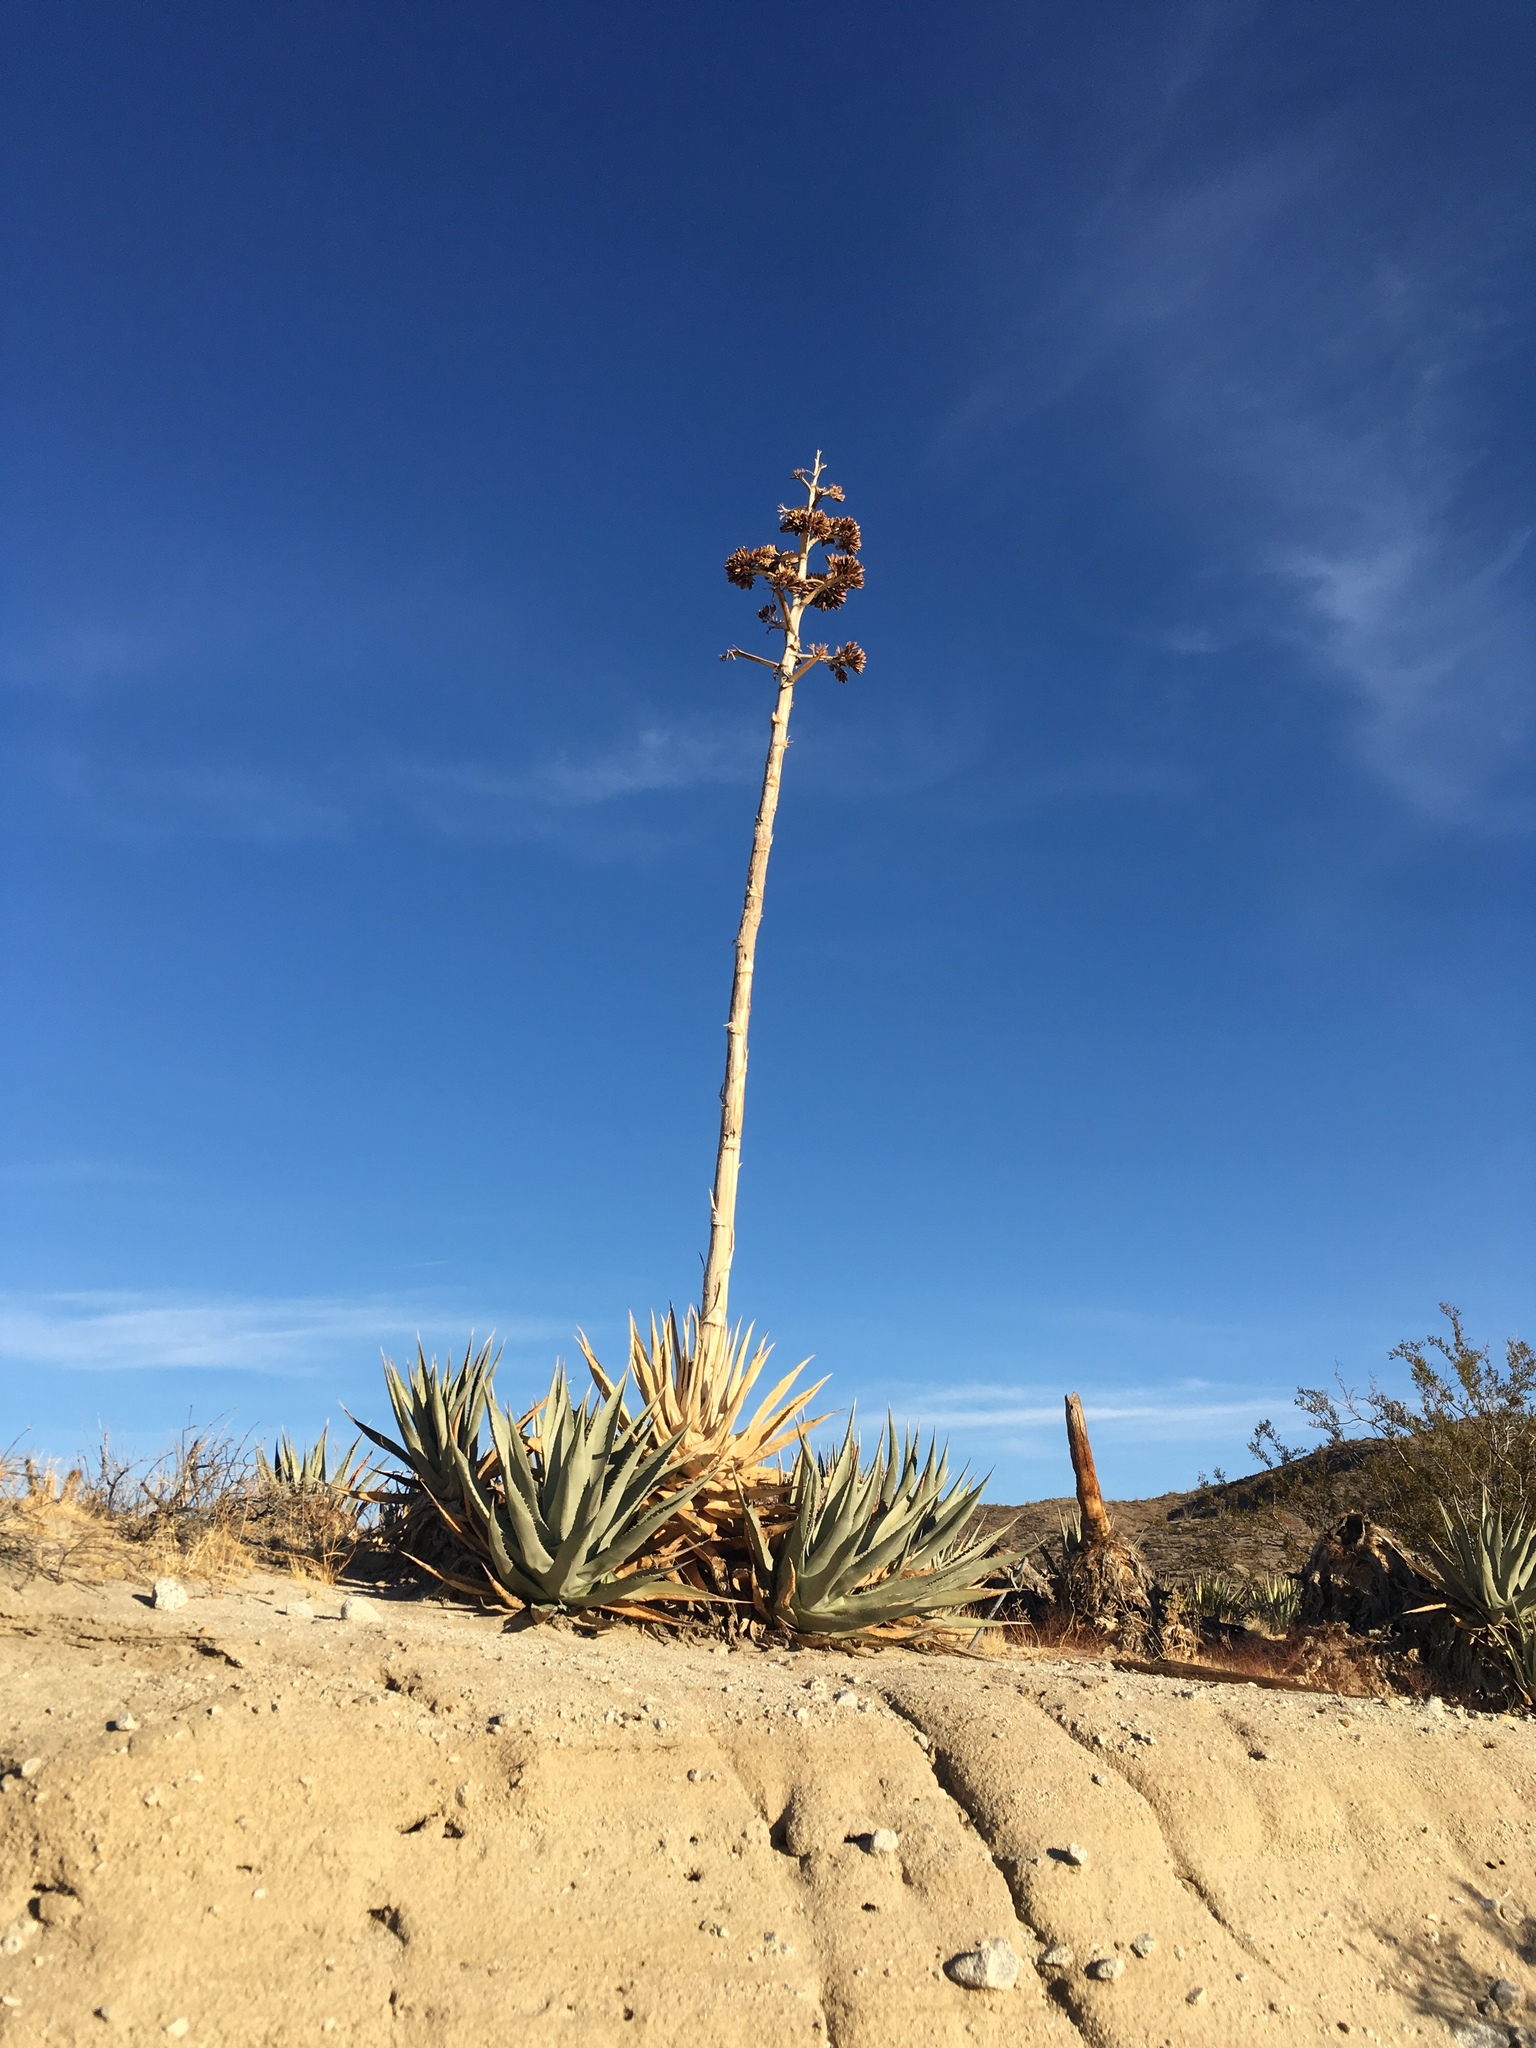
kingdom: Plantae
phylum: Tracheophyta
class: Liliopsida
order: Asparagales
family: Asparagaceae
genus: Agave
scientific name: Agave deserti
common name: Desert agave
